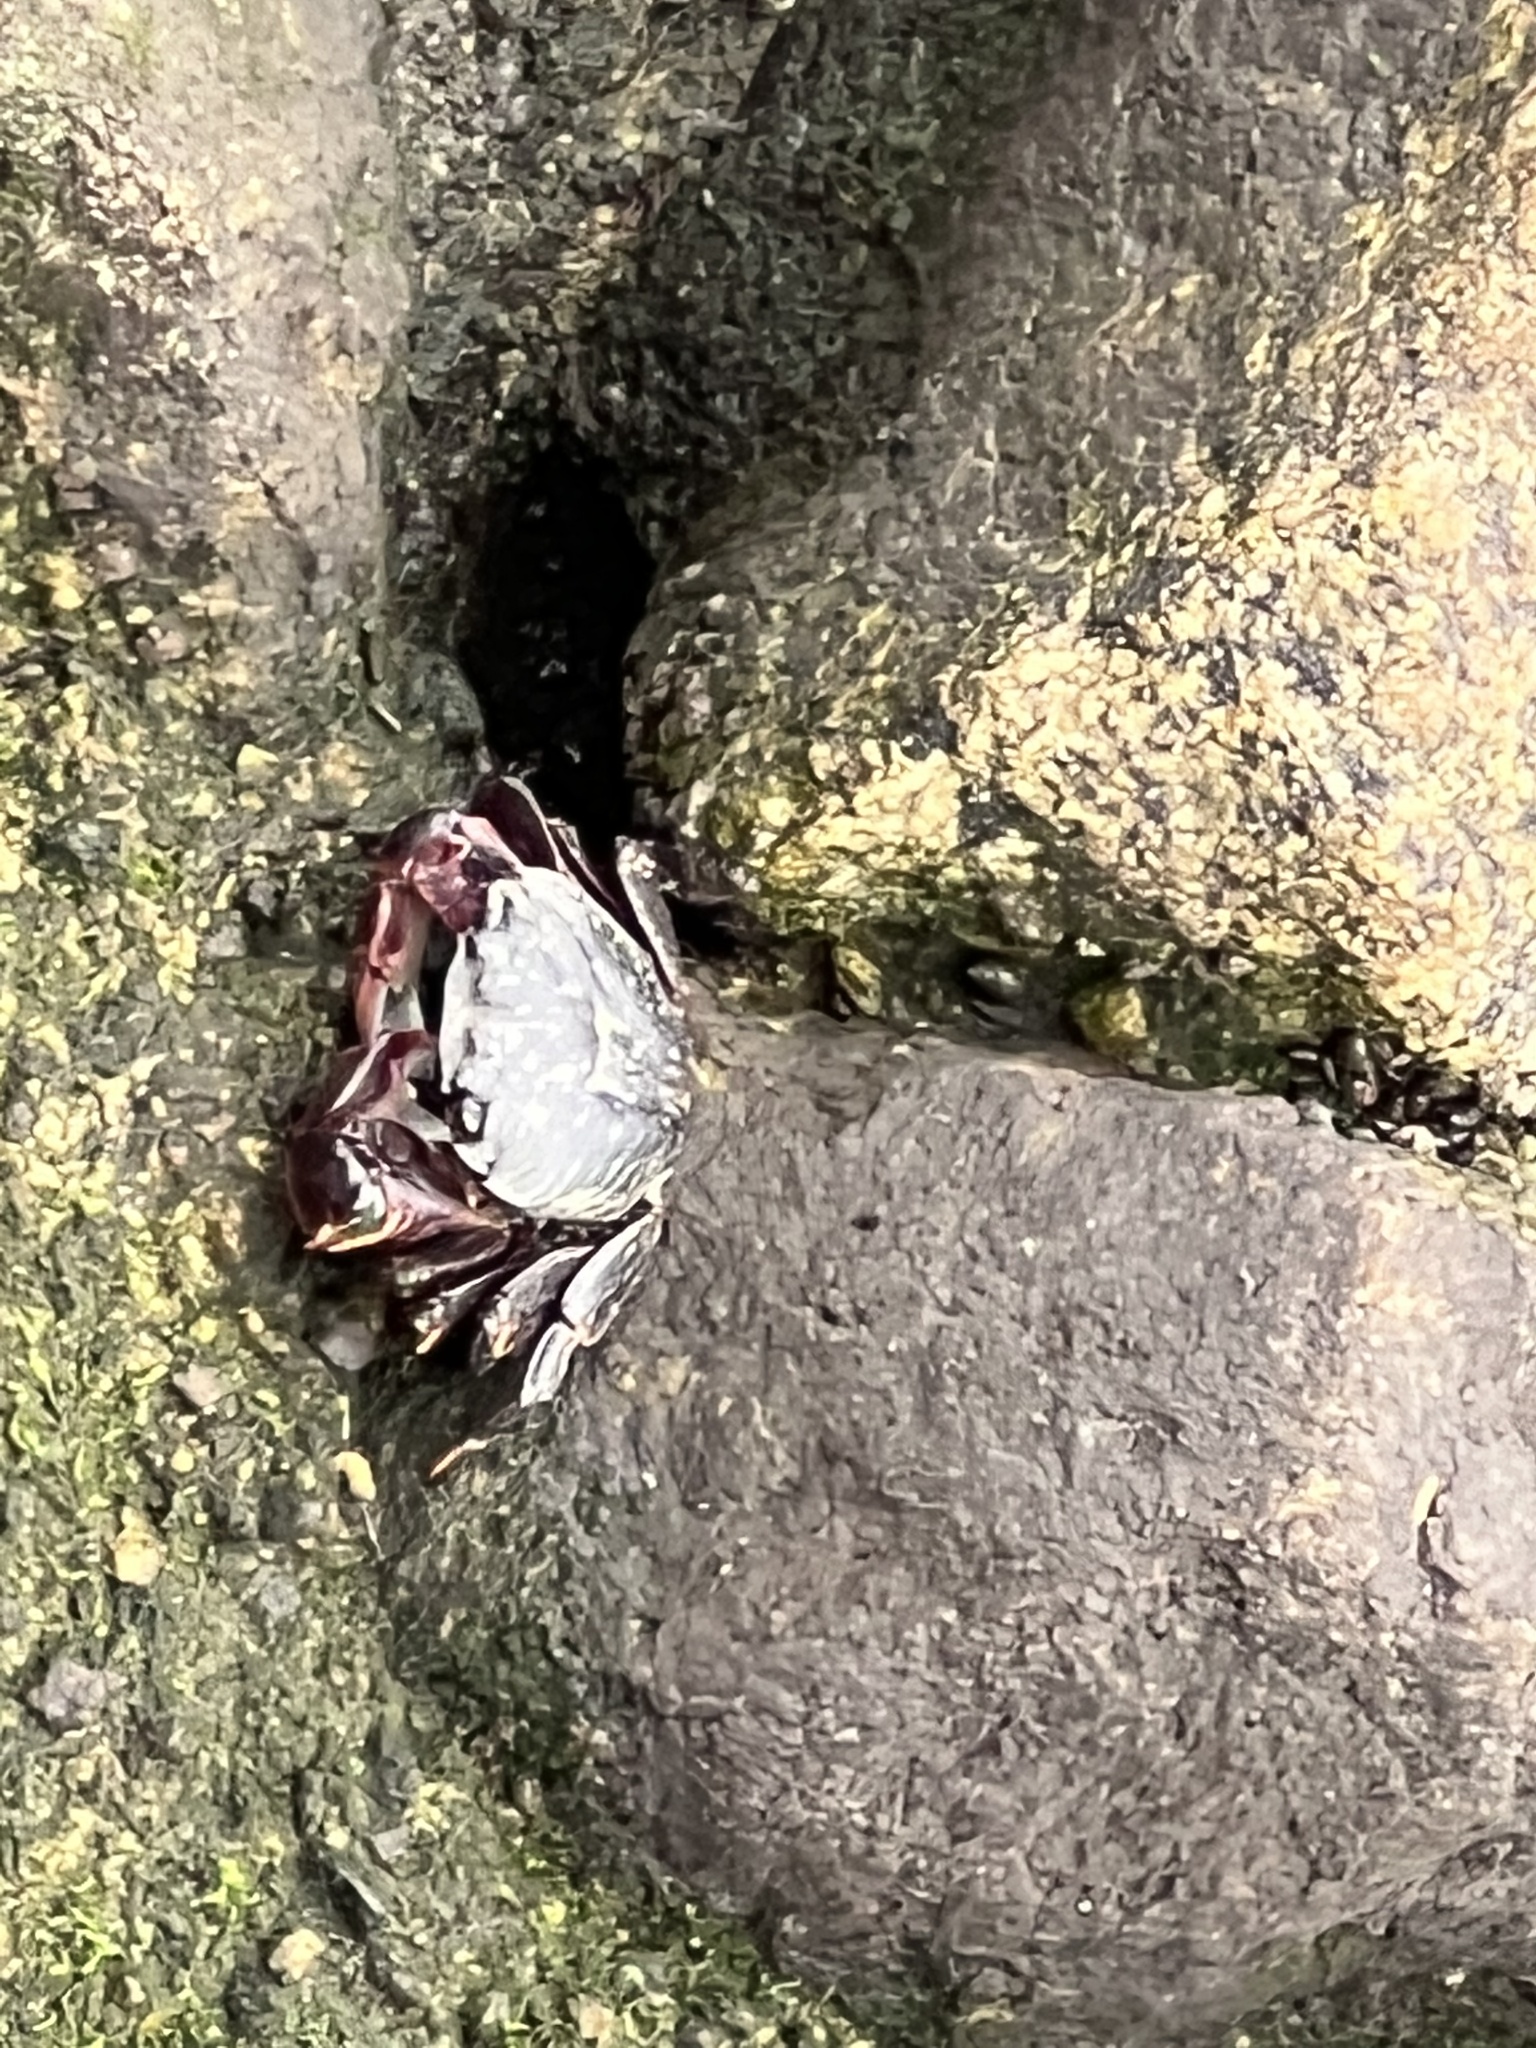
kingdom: Animalia
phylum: Arthropoda
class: Malacostraca
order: Decapoda
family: Grapsidae
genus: Pachygrapsus
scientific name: Pachygrapsus crassipes
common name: Striped shore crab
